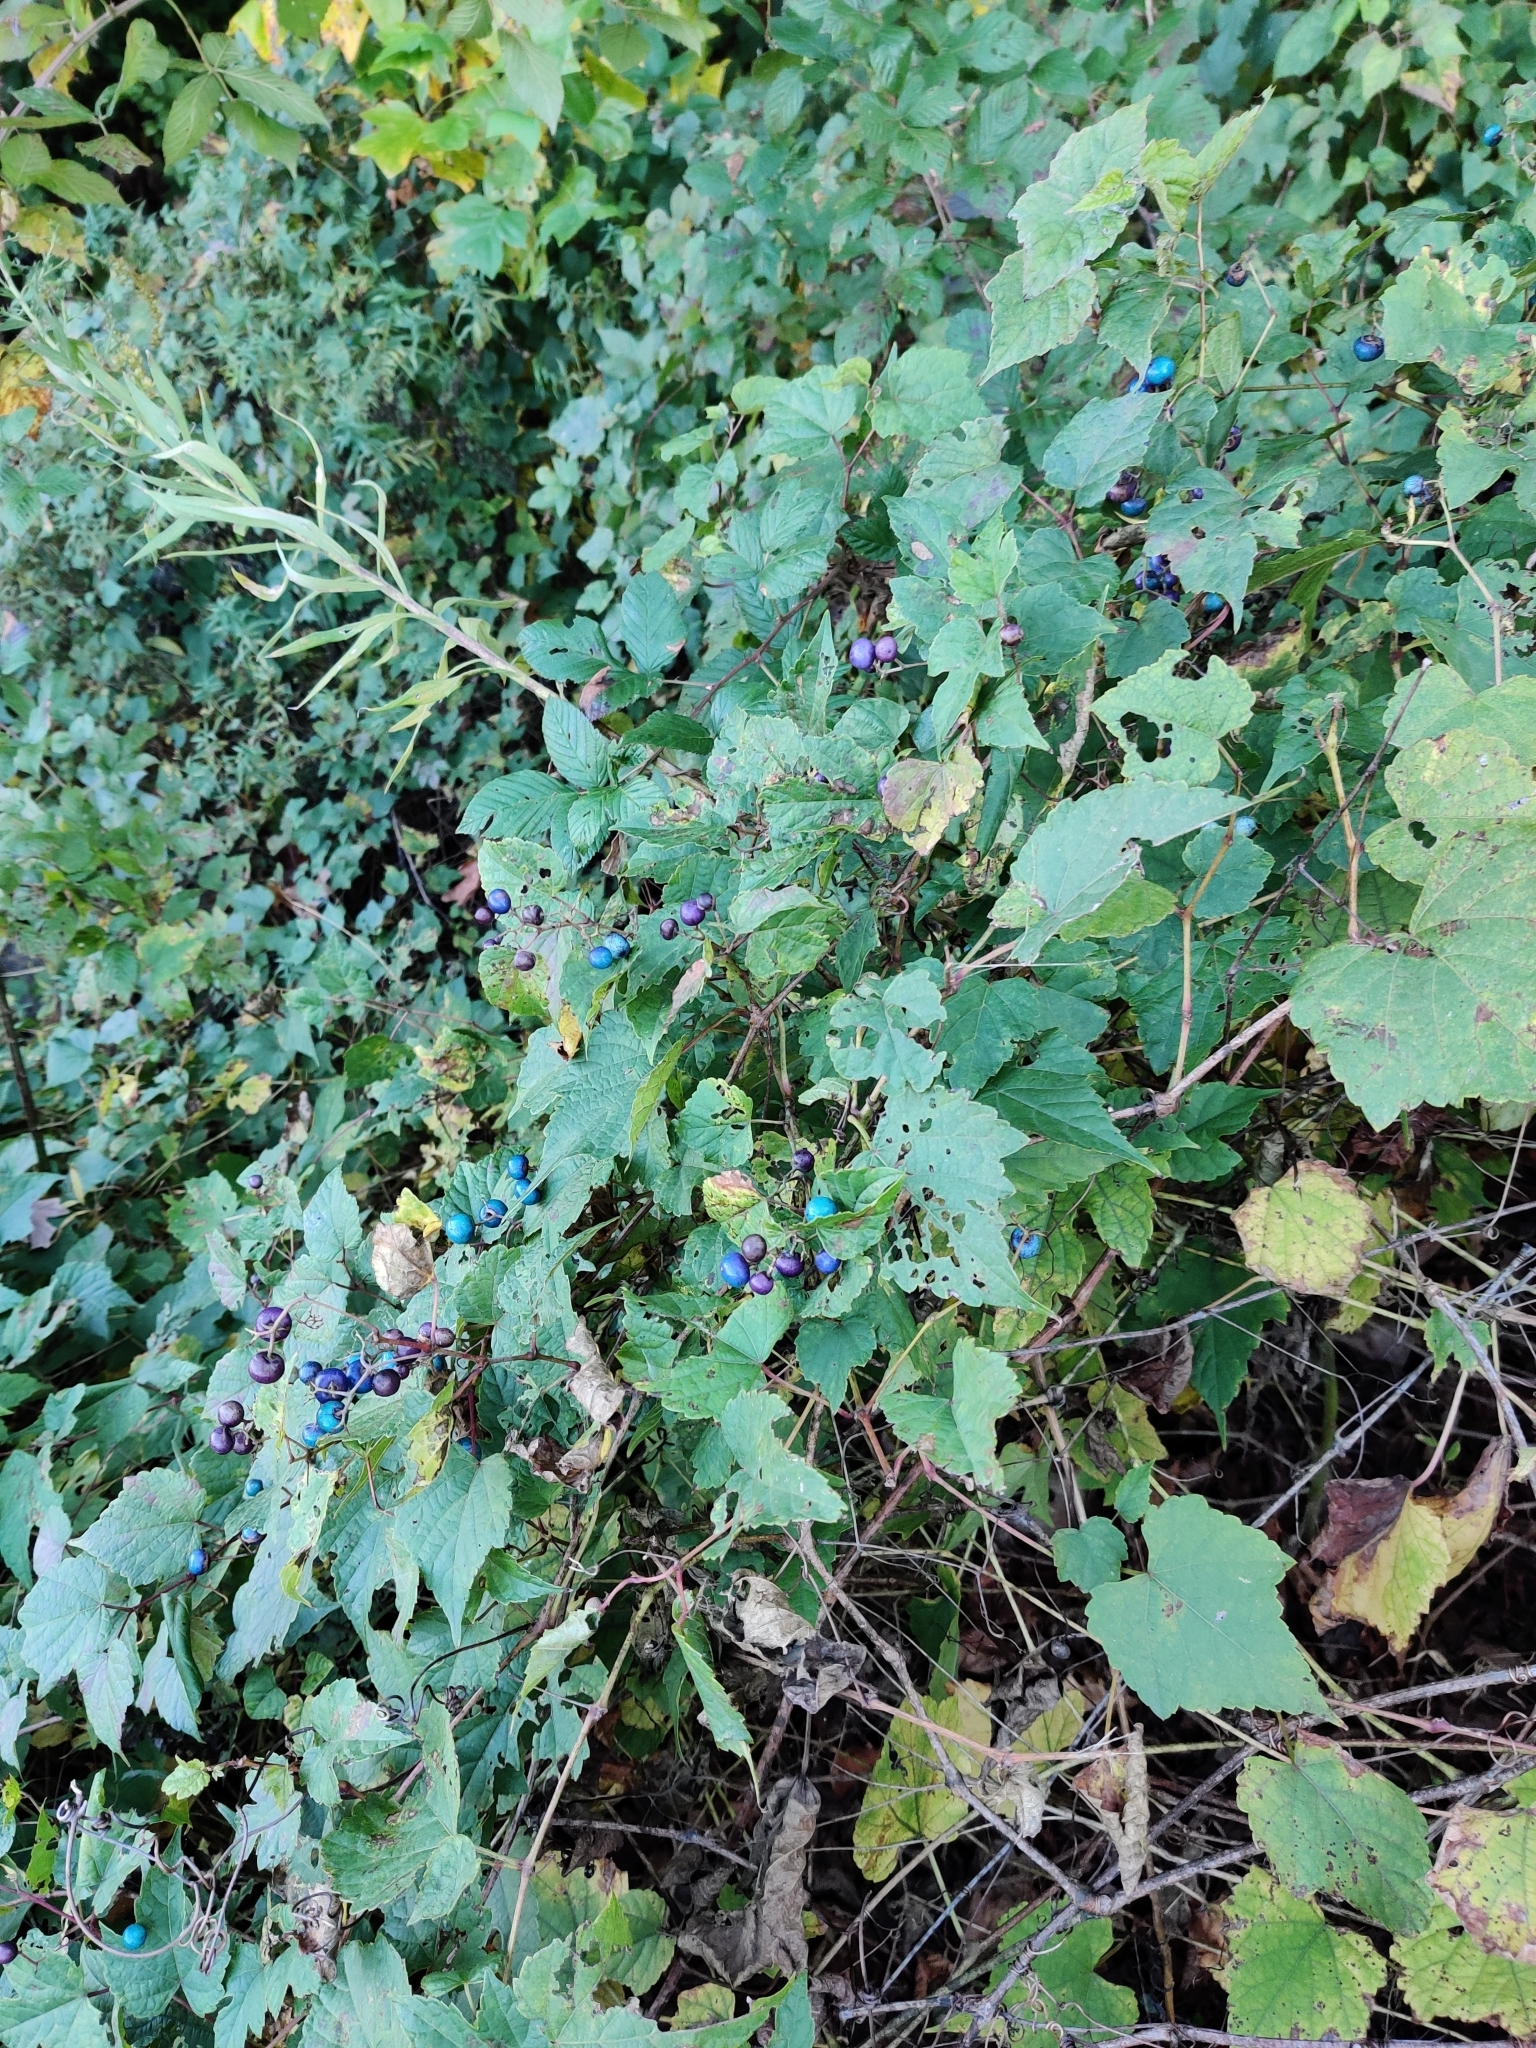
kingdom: Plantae
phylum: Tracheophyta
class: Magnoliopsida
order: Vitales
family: Vitaceae
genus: Ampelopsis
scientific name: Ampelopsis glandulosa
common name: Amur peppervine
